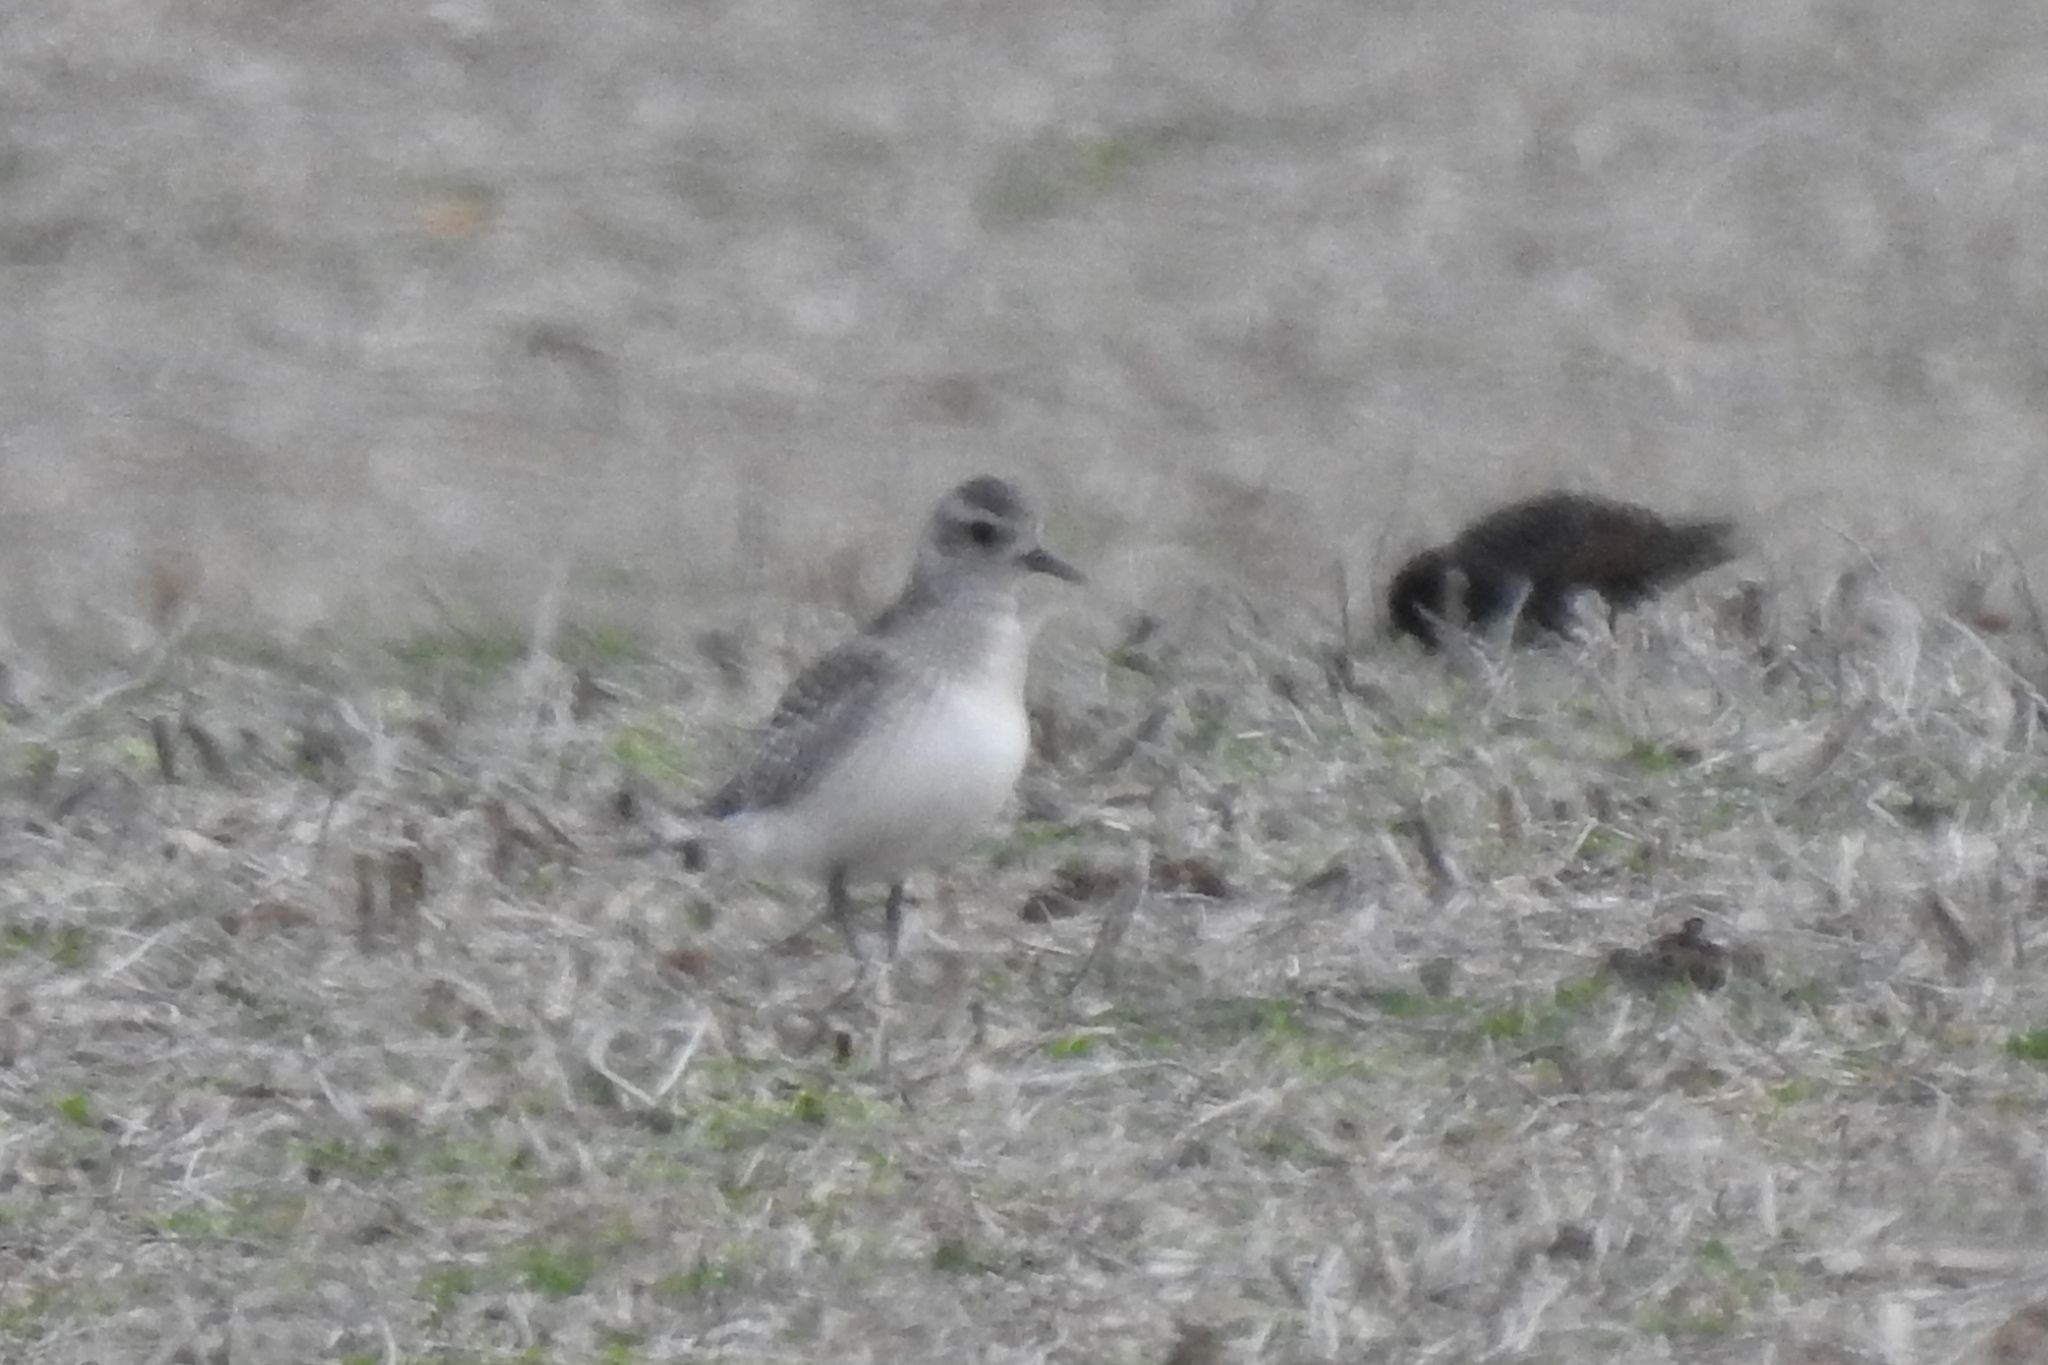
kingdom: Animalia
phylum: Chordata
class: Aves
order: Charadriiformes
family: Charadriidae
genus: Pluvialis
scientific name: Pluvialis squatarola
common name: Grey plover
